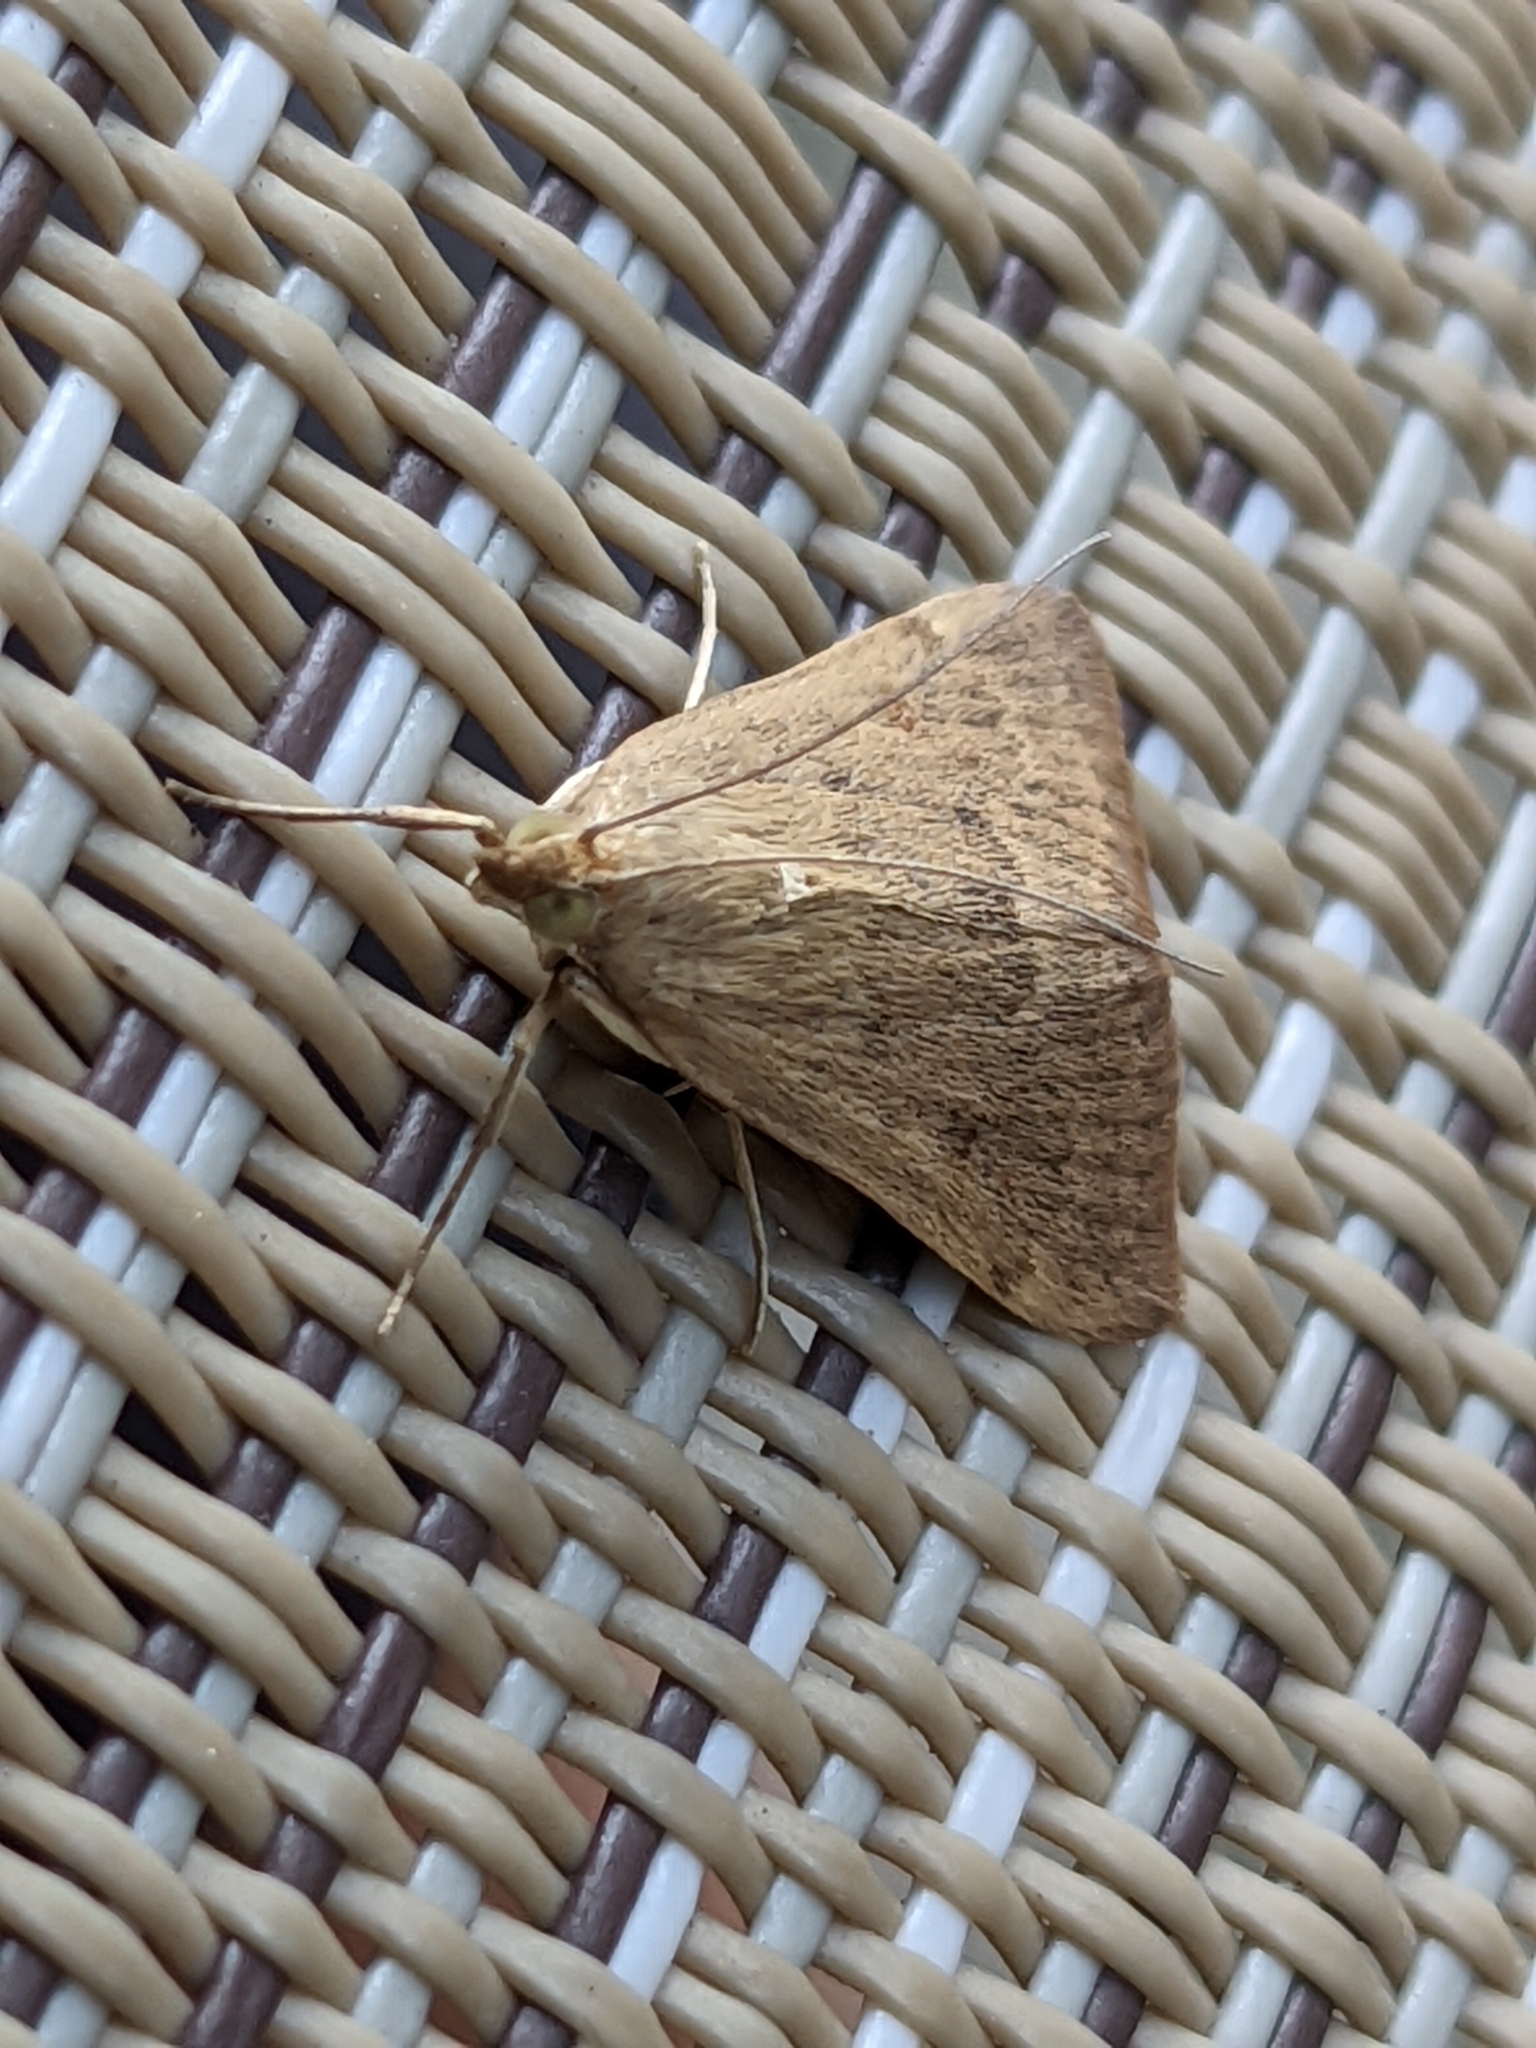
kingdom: Animalia
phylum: Arthropoda
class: Insecta
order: Lepidoptera
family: Crambidae
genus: Achyra
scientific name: Achyra rantalis
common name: Garden webworm
